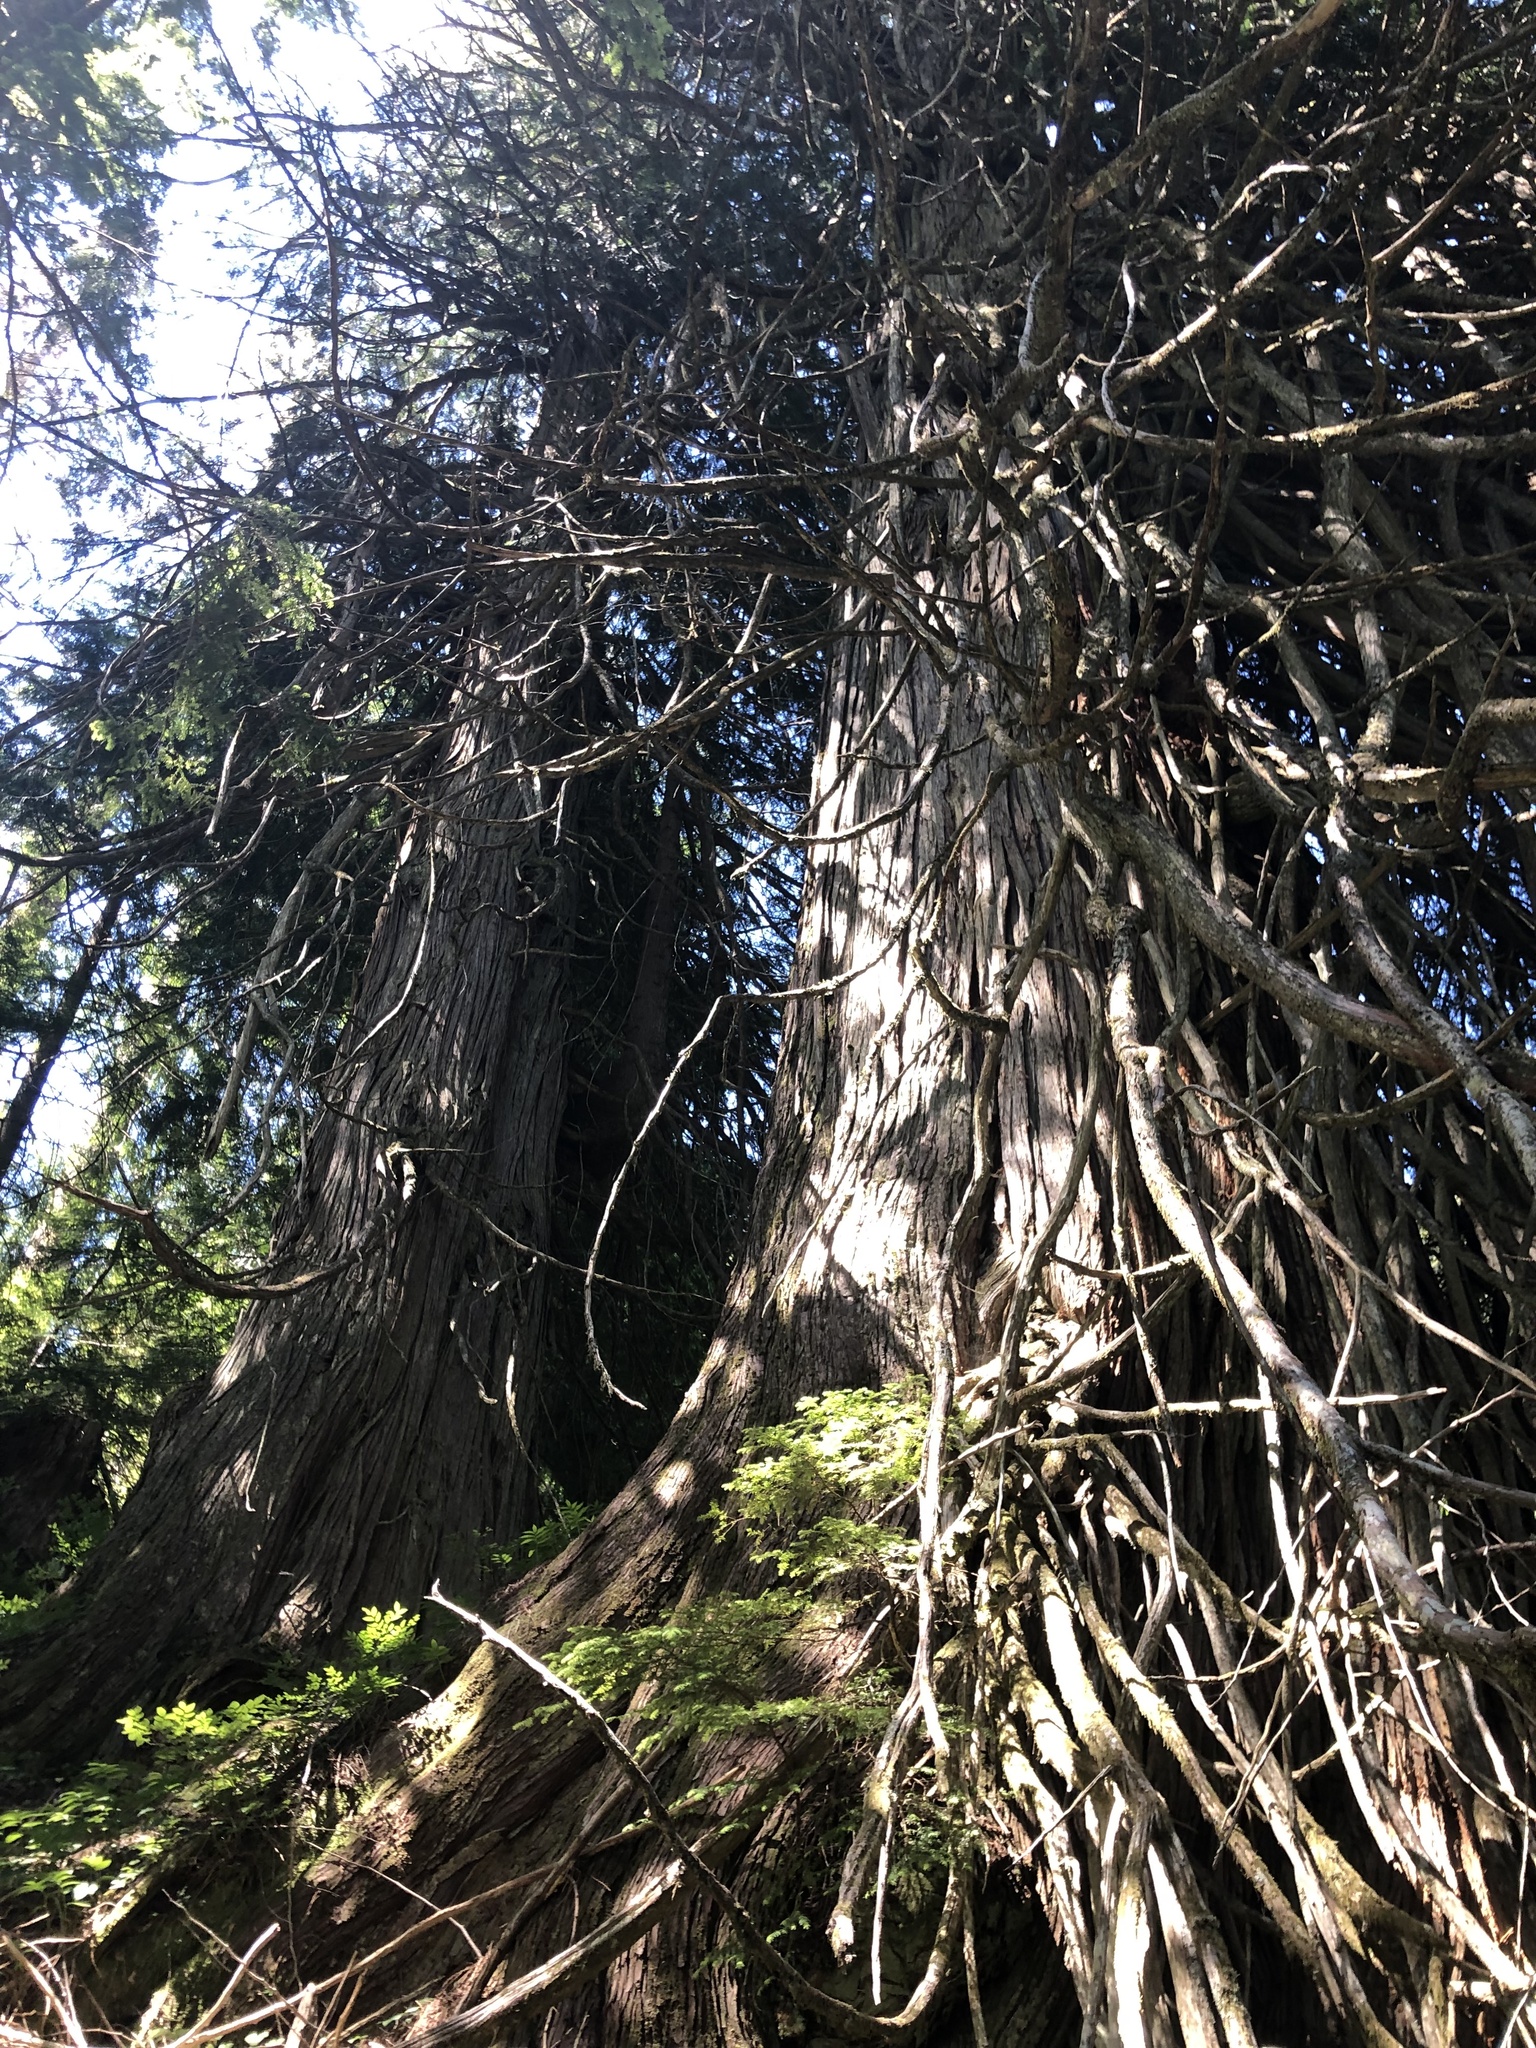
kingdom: Plantae
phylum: Tracheophyta
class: Pinopsida
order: Pinales
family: Cupressaceae
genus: Thuja
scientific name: Thuja plicata
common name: Western red-cedar
